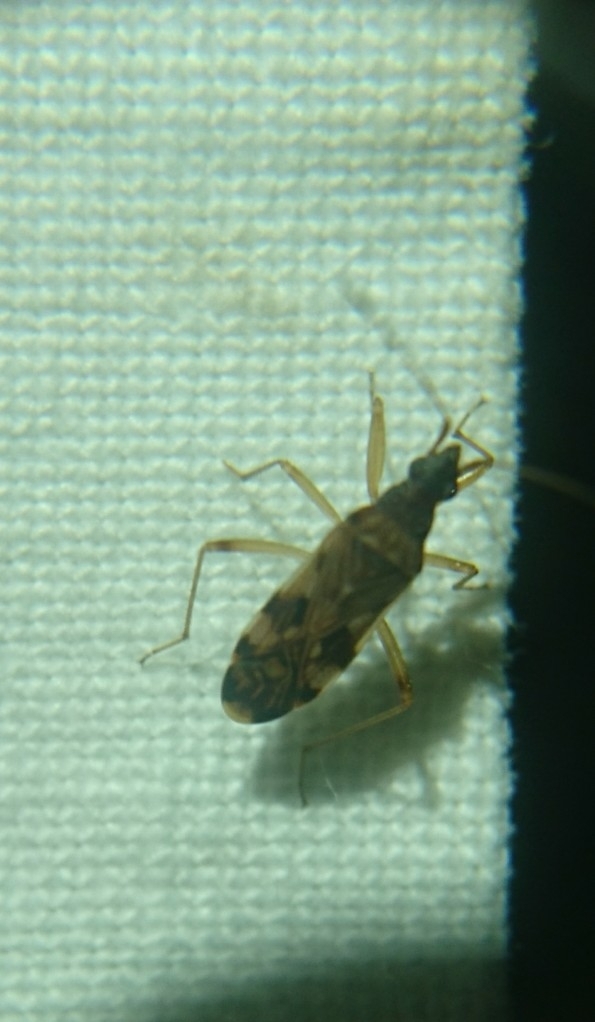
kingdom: Animalia
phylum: Arthropoda
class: Insecta
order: Hemiptera
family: Rhyparochromidae
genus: Ozophora
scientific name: Ozophora picturata
